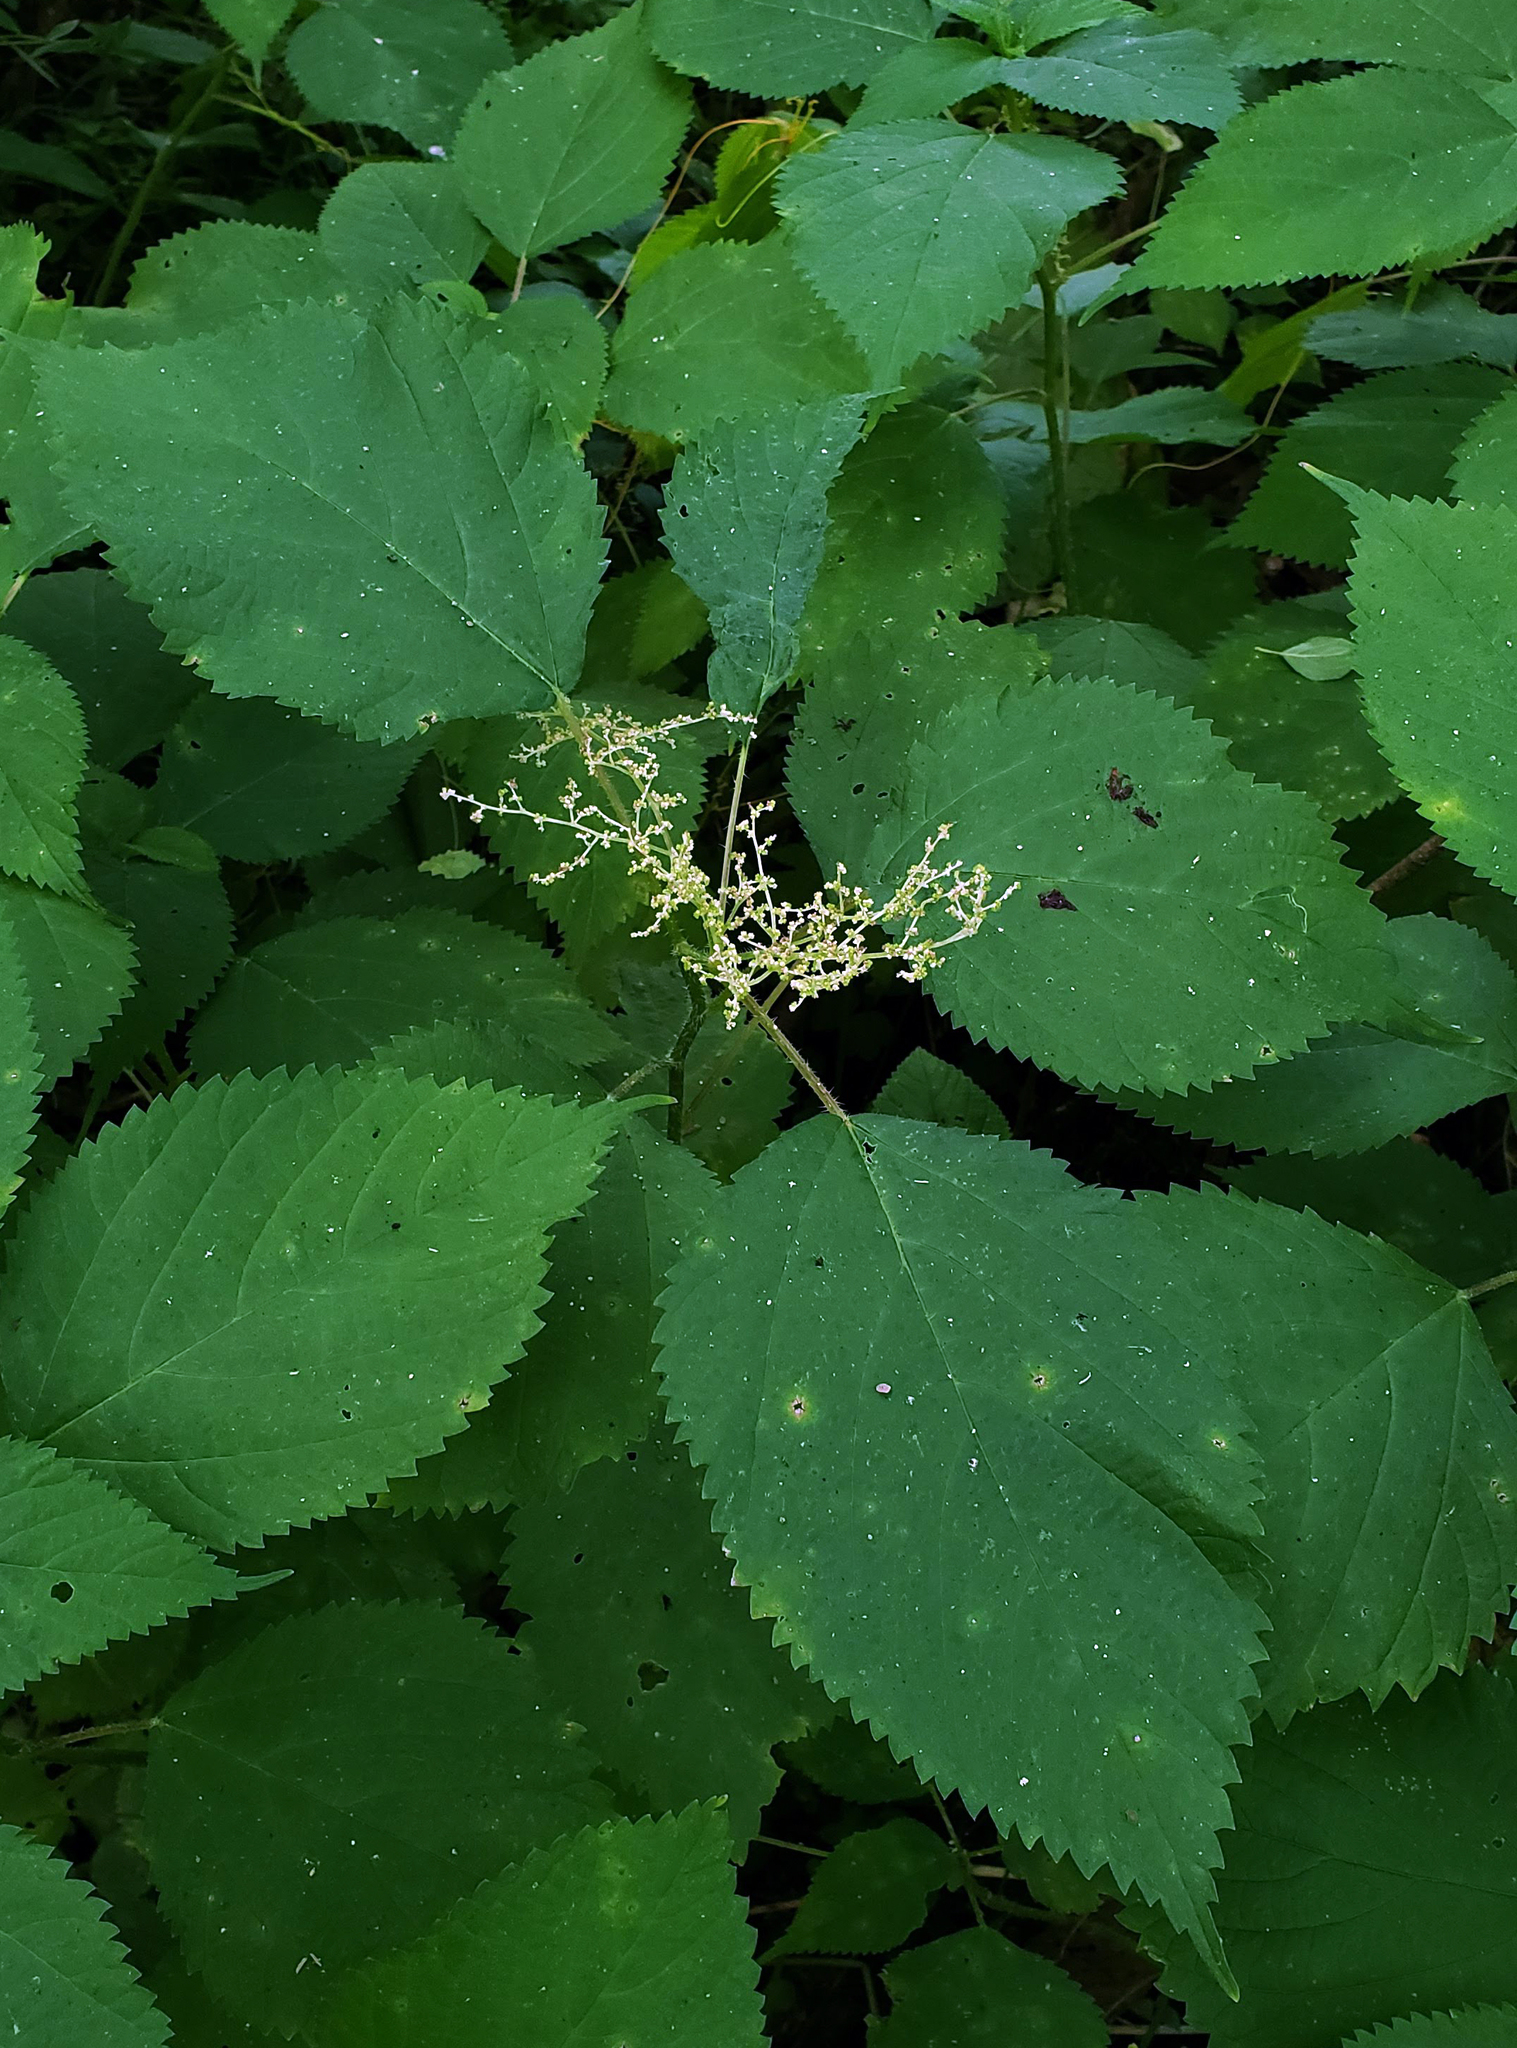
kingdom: Plantae
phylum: Tracheophyta
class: Magnoliopsida
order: Rosales
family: Urticaceae
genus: Laportea
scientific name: Laportea canadensis
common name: Canada nettle
